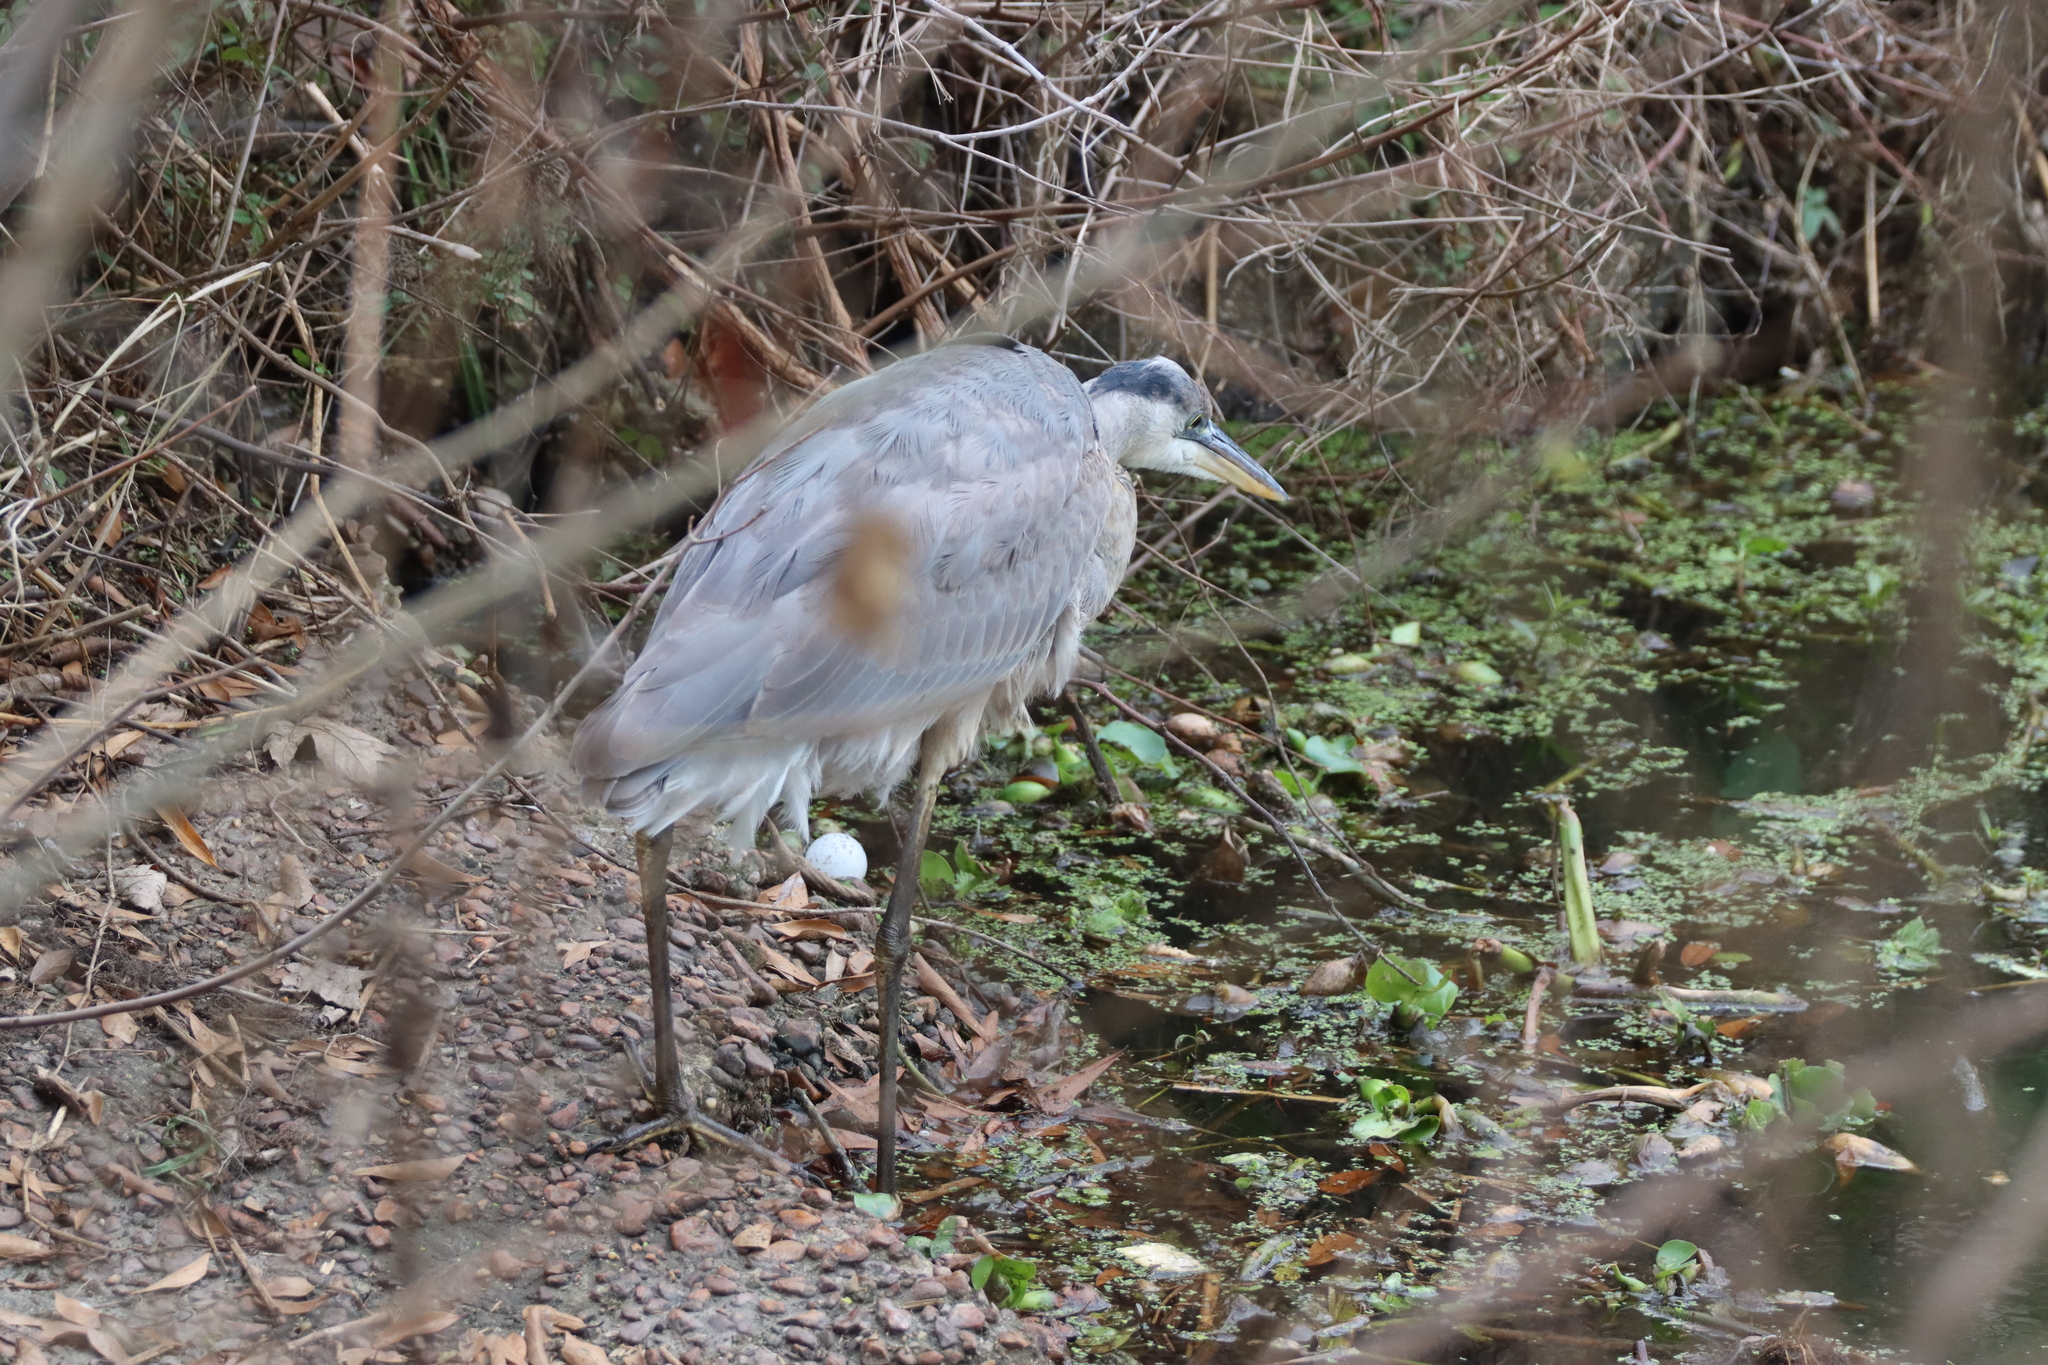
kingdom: Animalia
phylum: Chordata
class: Aves
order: Pelecaniformes
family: Ardeidae
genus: Ardea
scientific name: Ardea herodias
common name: Great blue heron
